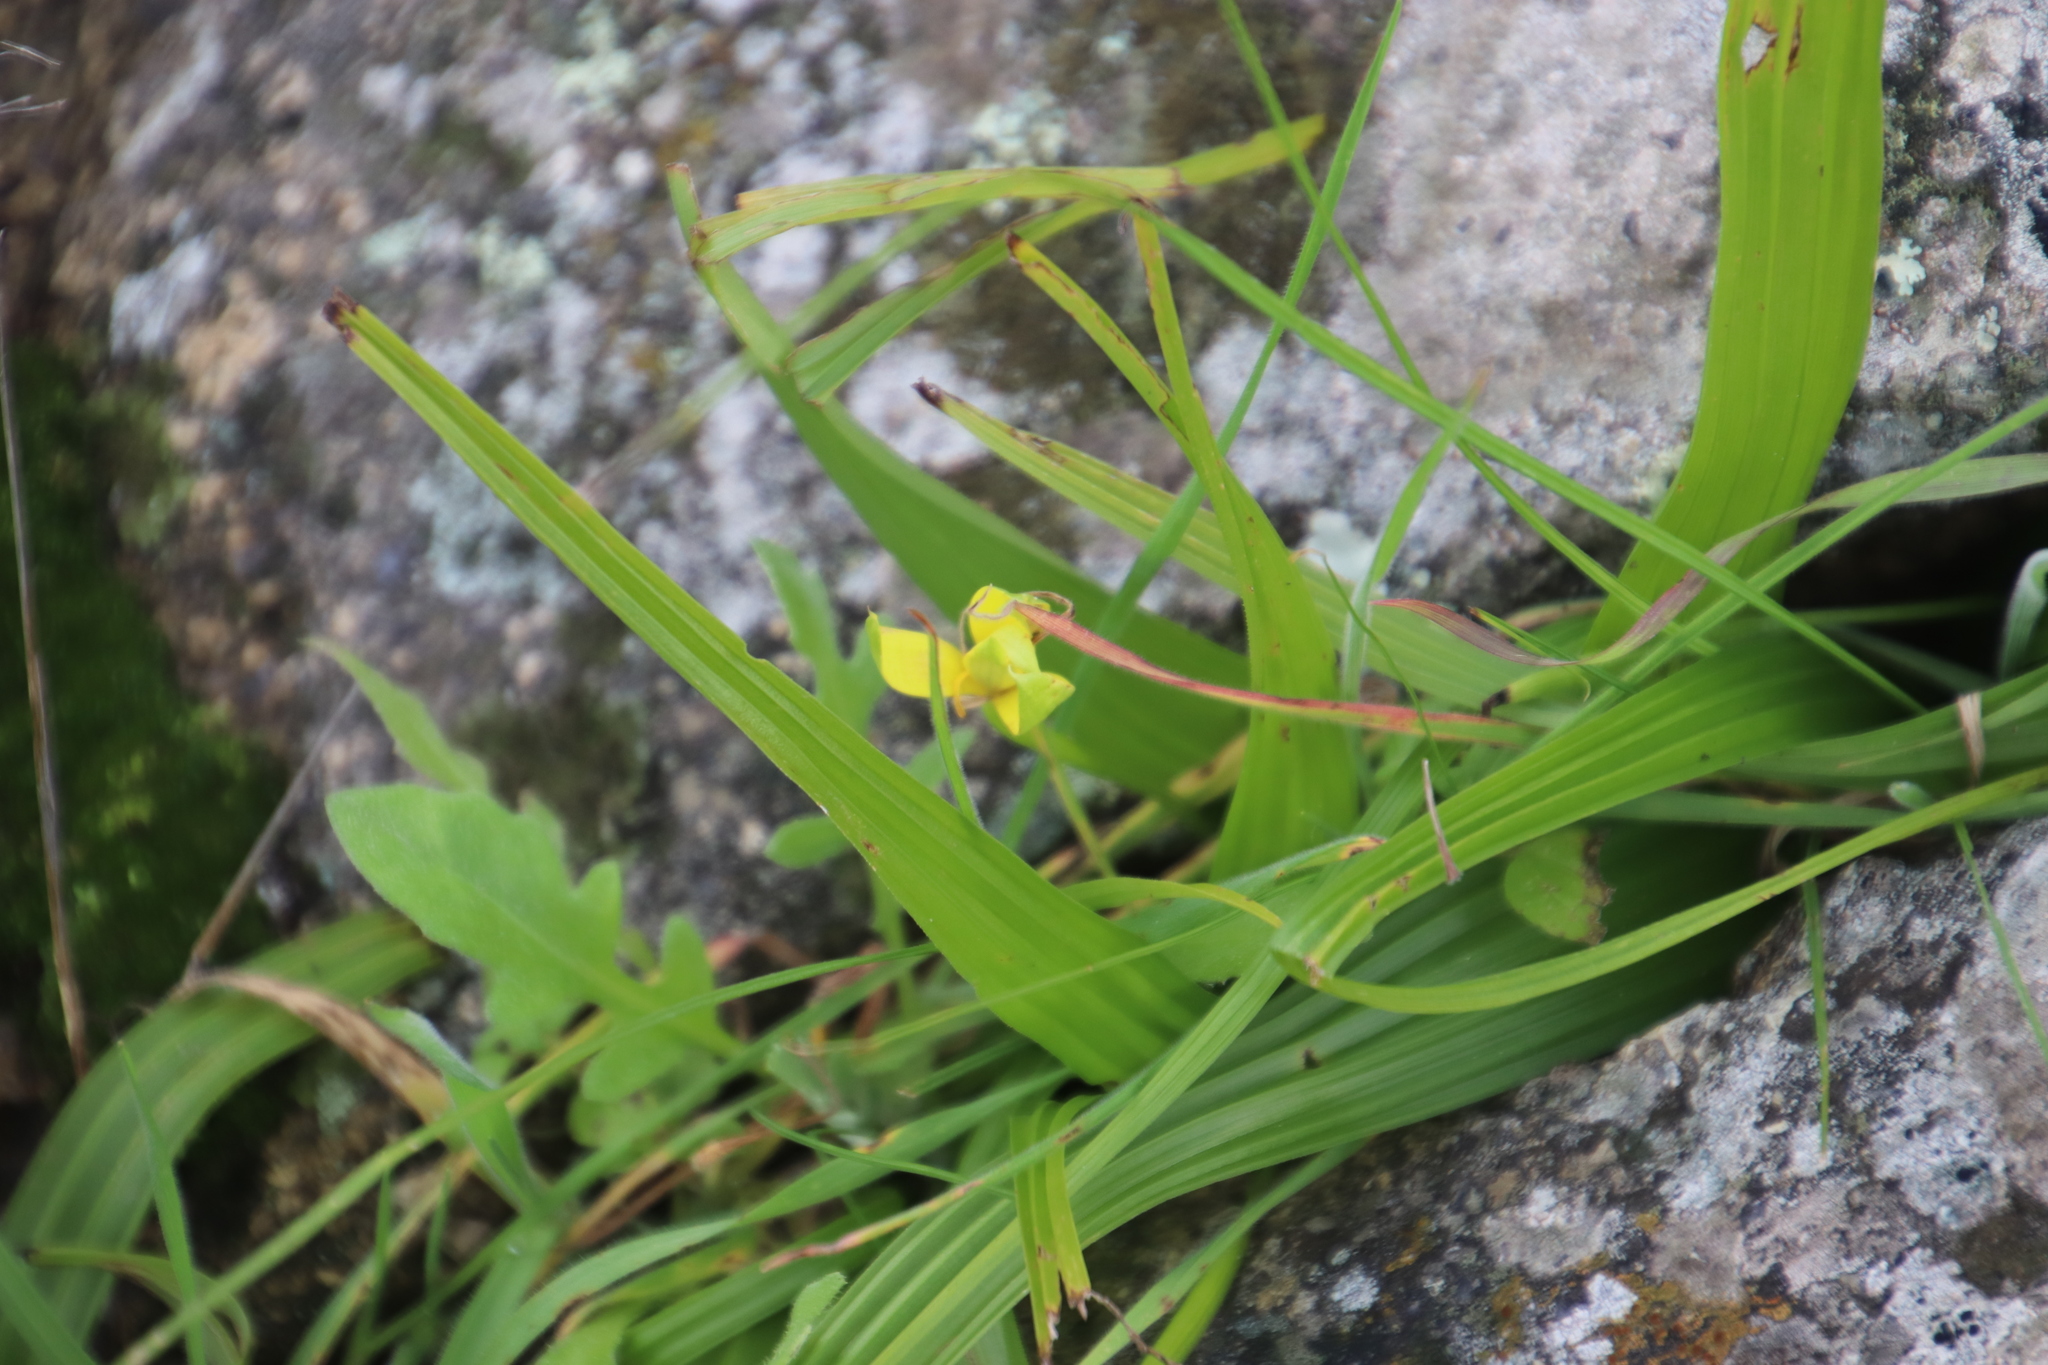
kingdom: Plantae
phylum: Tracheophyta
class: Liliopsida
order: Asparagales
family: Hypoxidaceae
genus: Empodium
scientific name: Empodium veratrifolium
